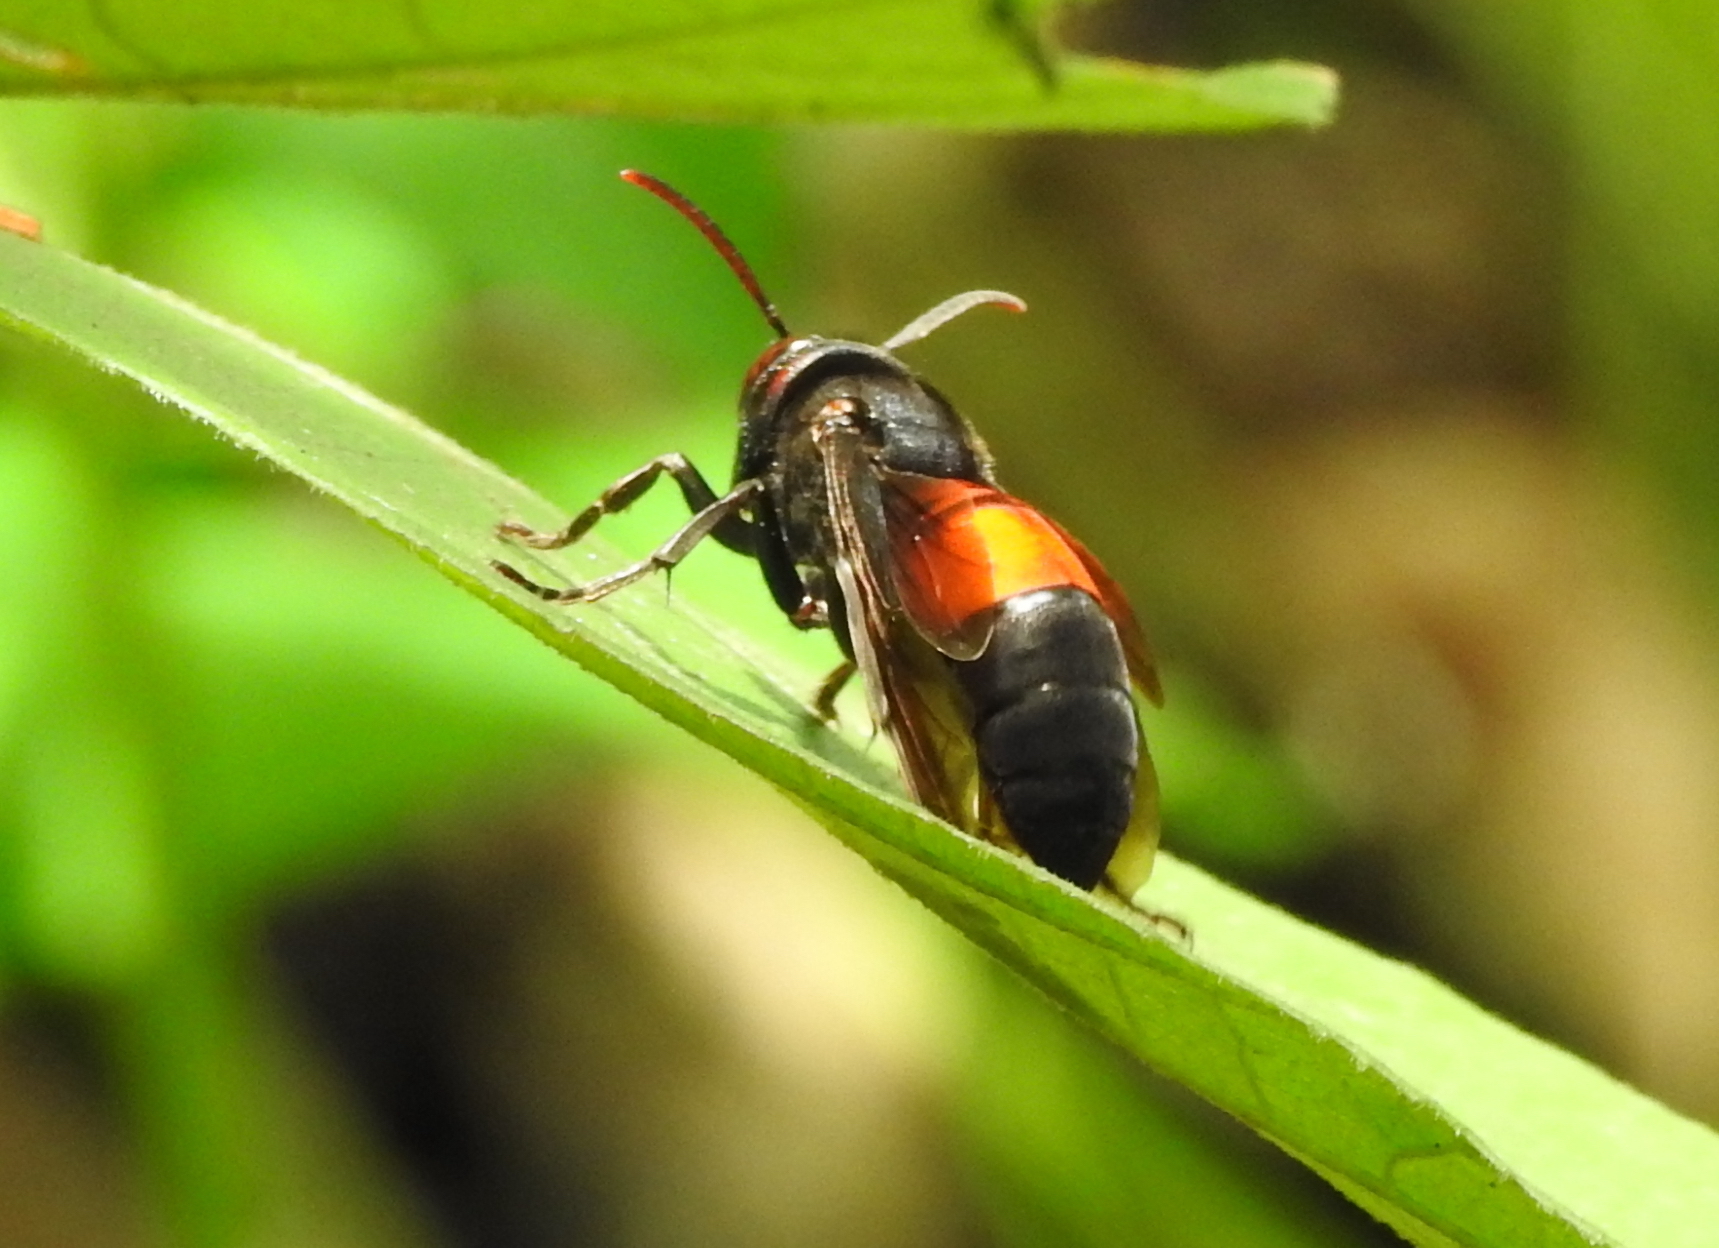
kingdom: Animalia
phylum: Arthropoda
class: Insecta
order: Hymenoptera
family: Vespidae
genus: Vespa
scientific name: Vespa affinis
